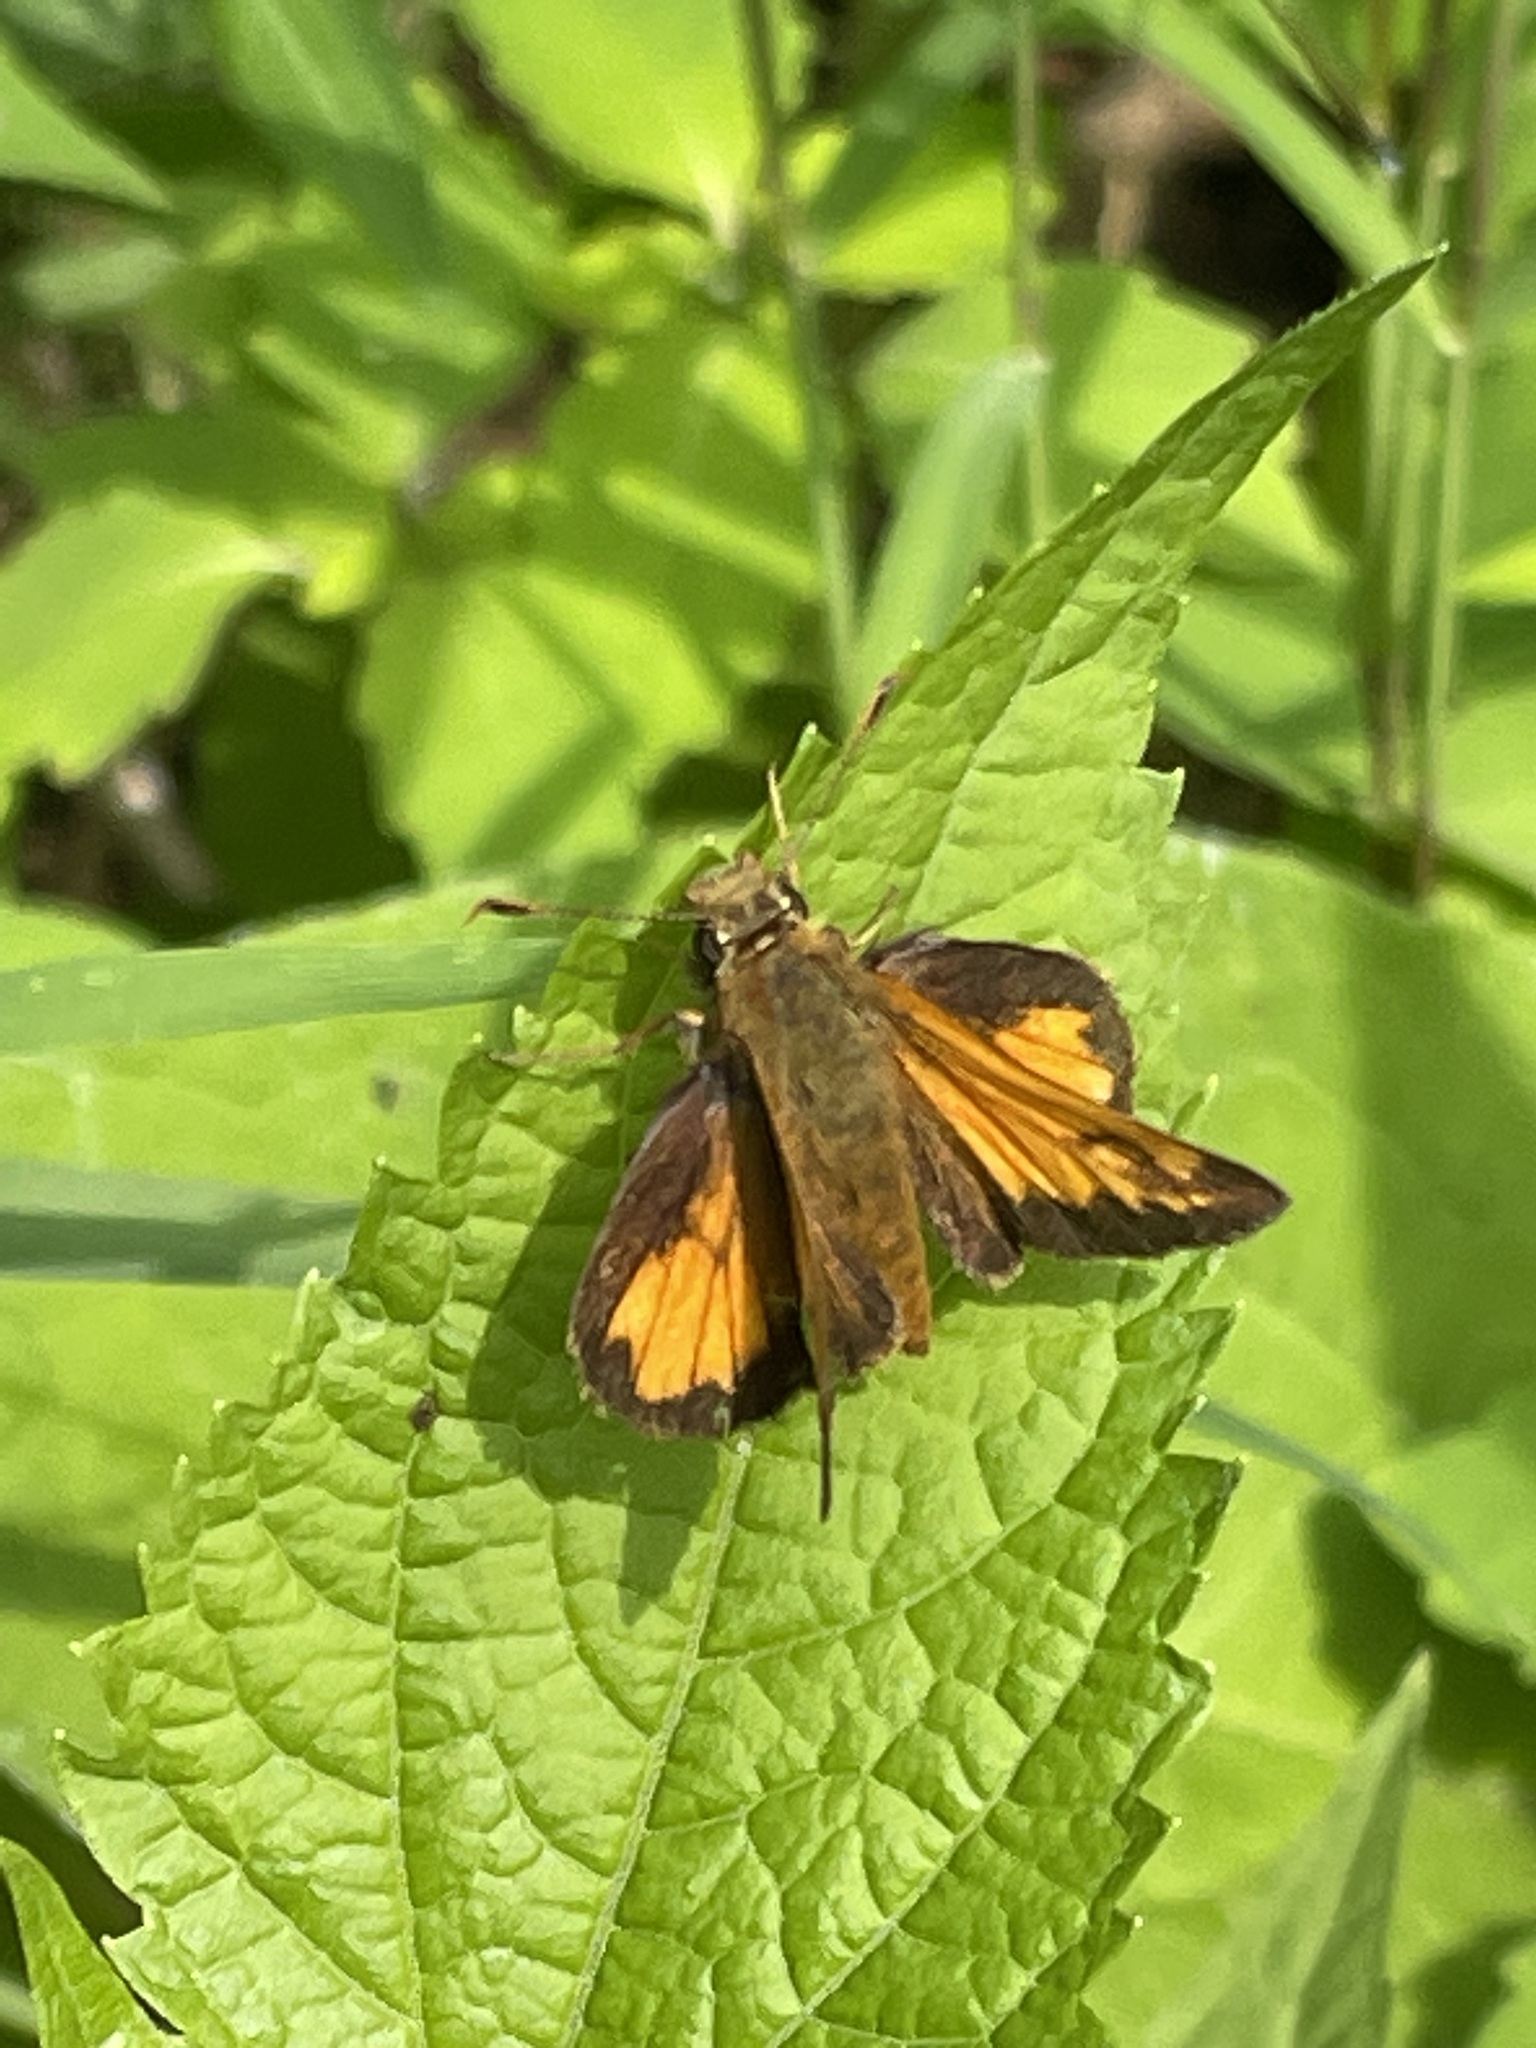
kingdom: Animalia
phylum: Arthropoda
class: Insecta
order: Lepidoptera
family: Hesperiidae
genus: Lon
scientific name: Lon hobomok
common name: Hobomok skipper
